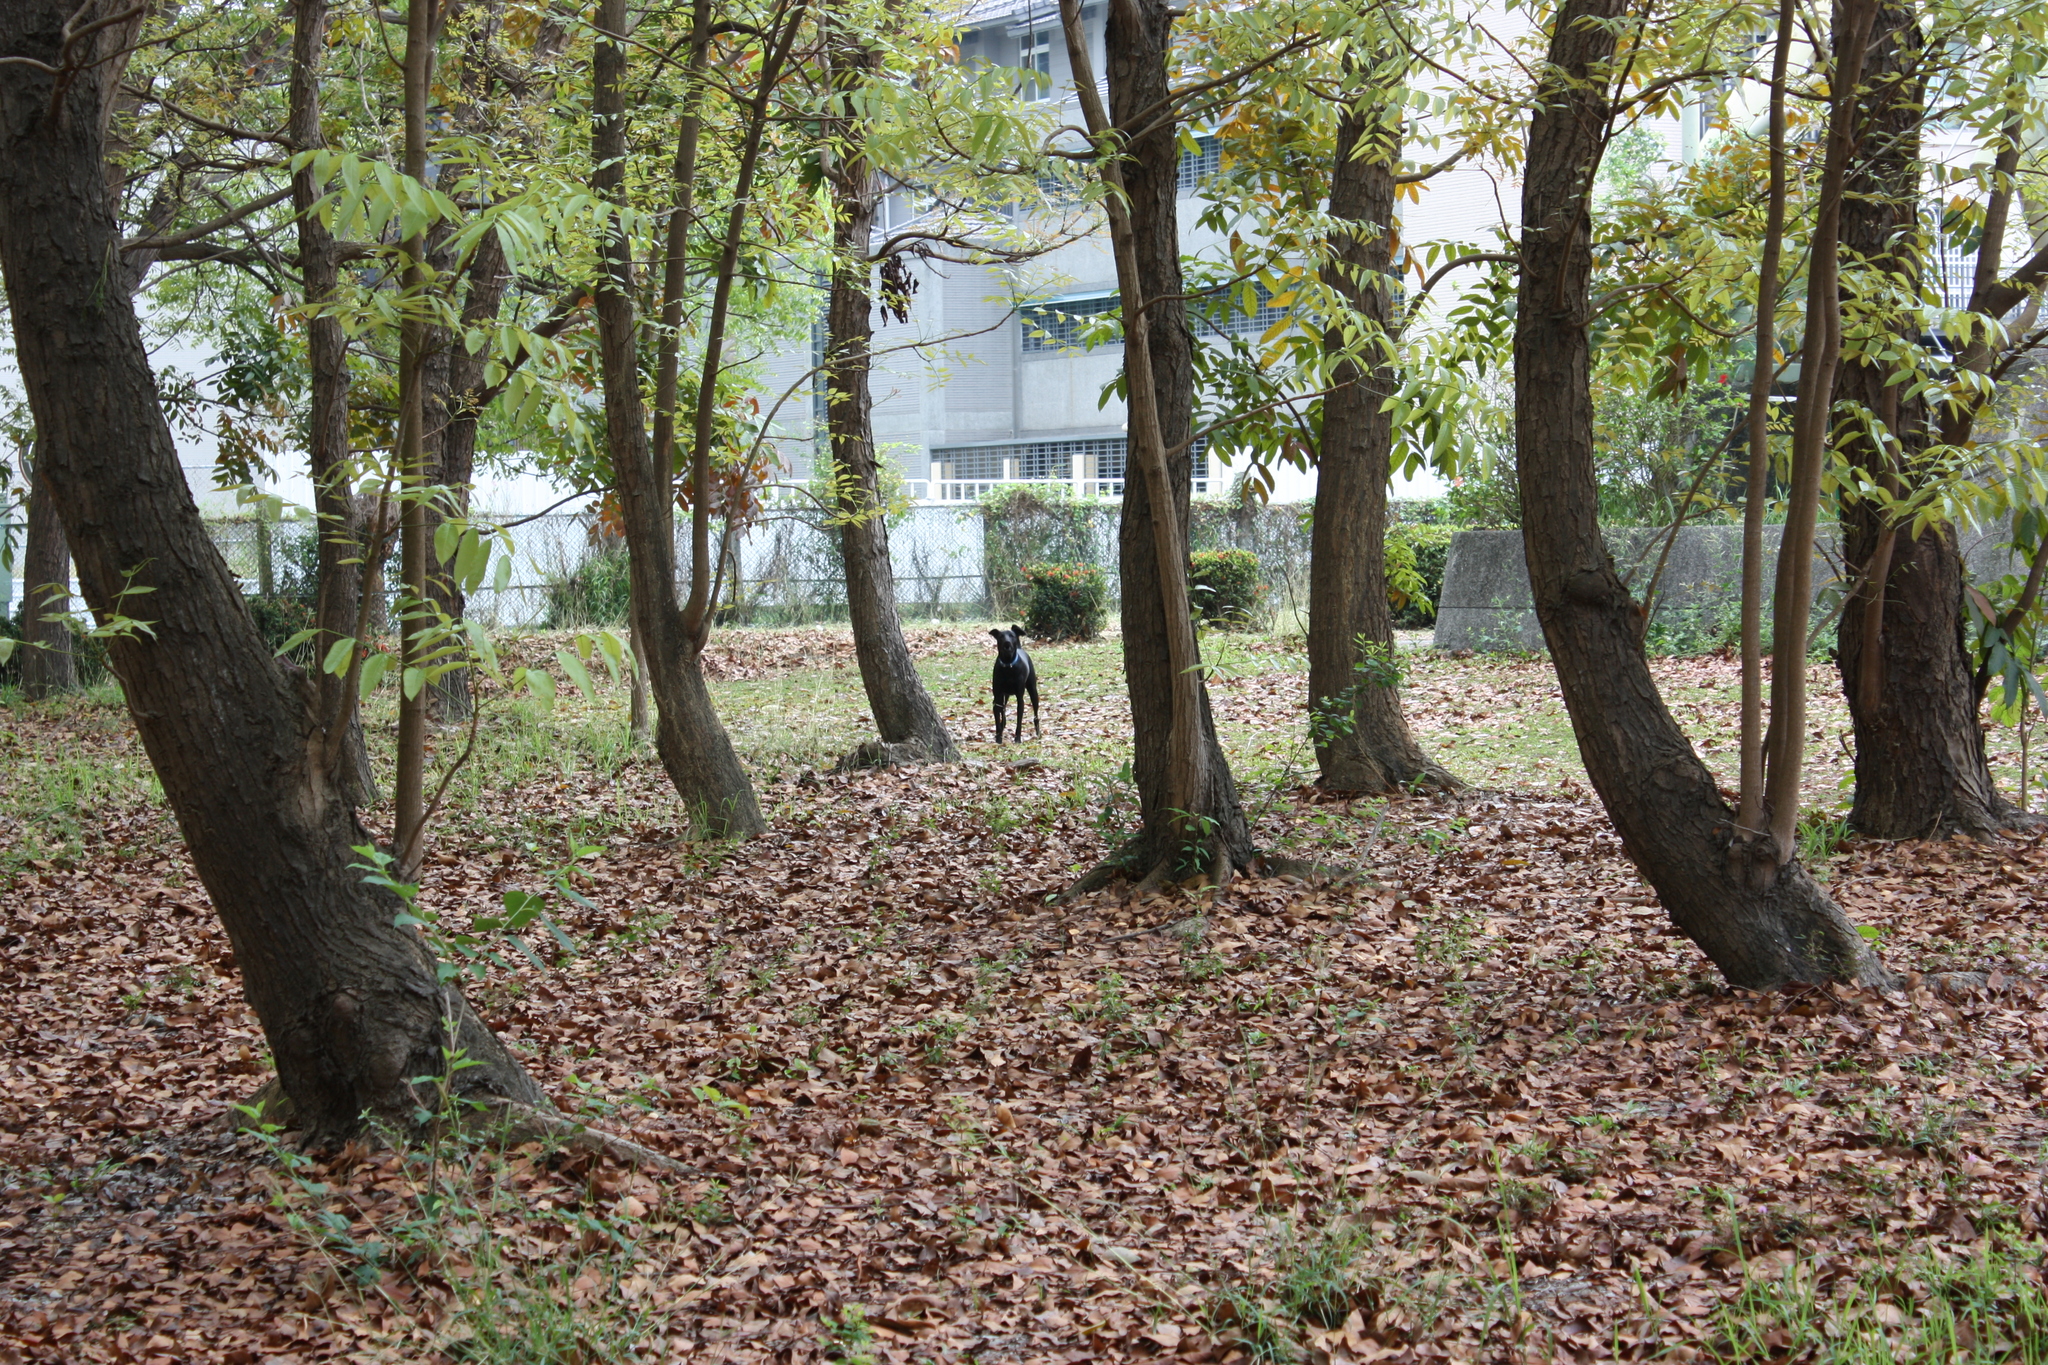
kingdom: Animalia
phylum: Chordata
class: Mammalia
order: Carnivora
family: Canidae
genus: Canis
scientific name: Canis lupus
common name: Gray wolf
